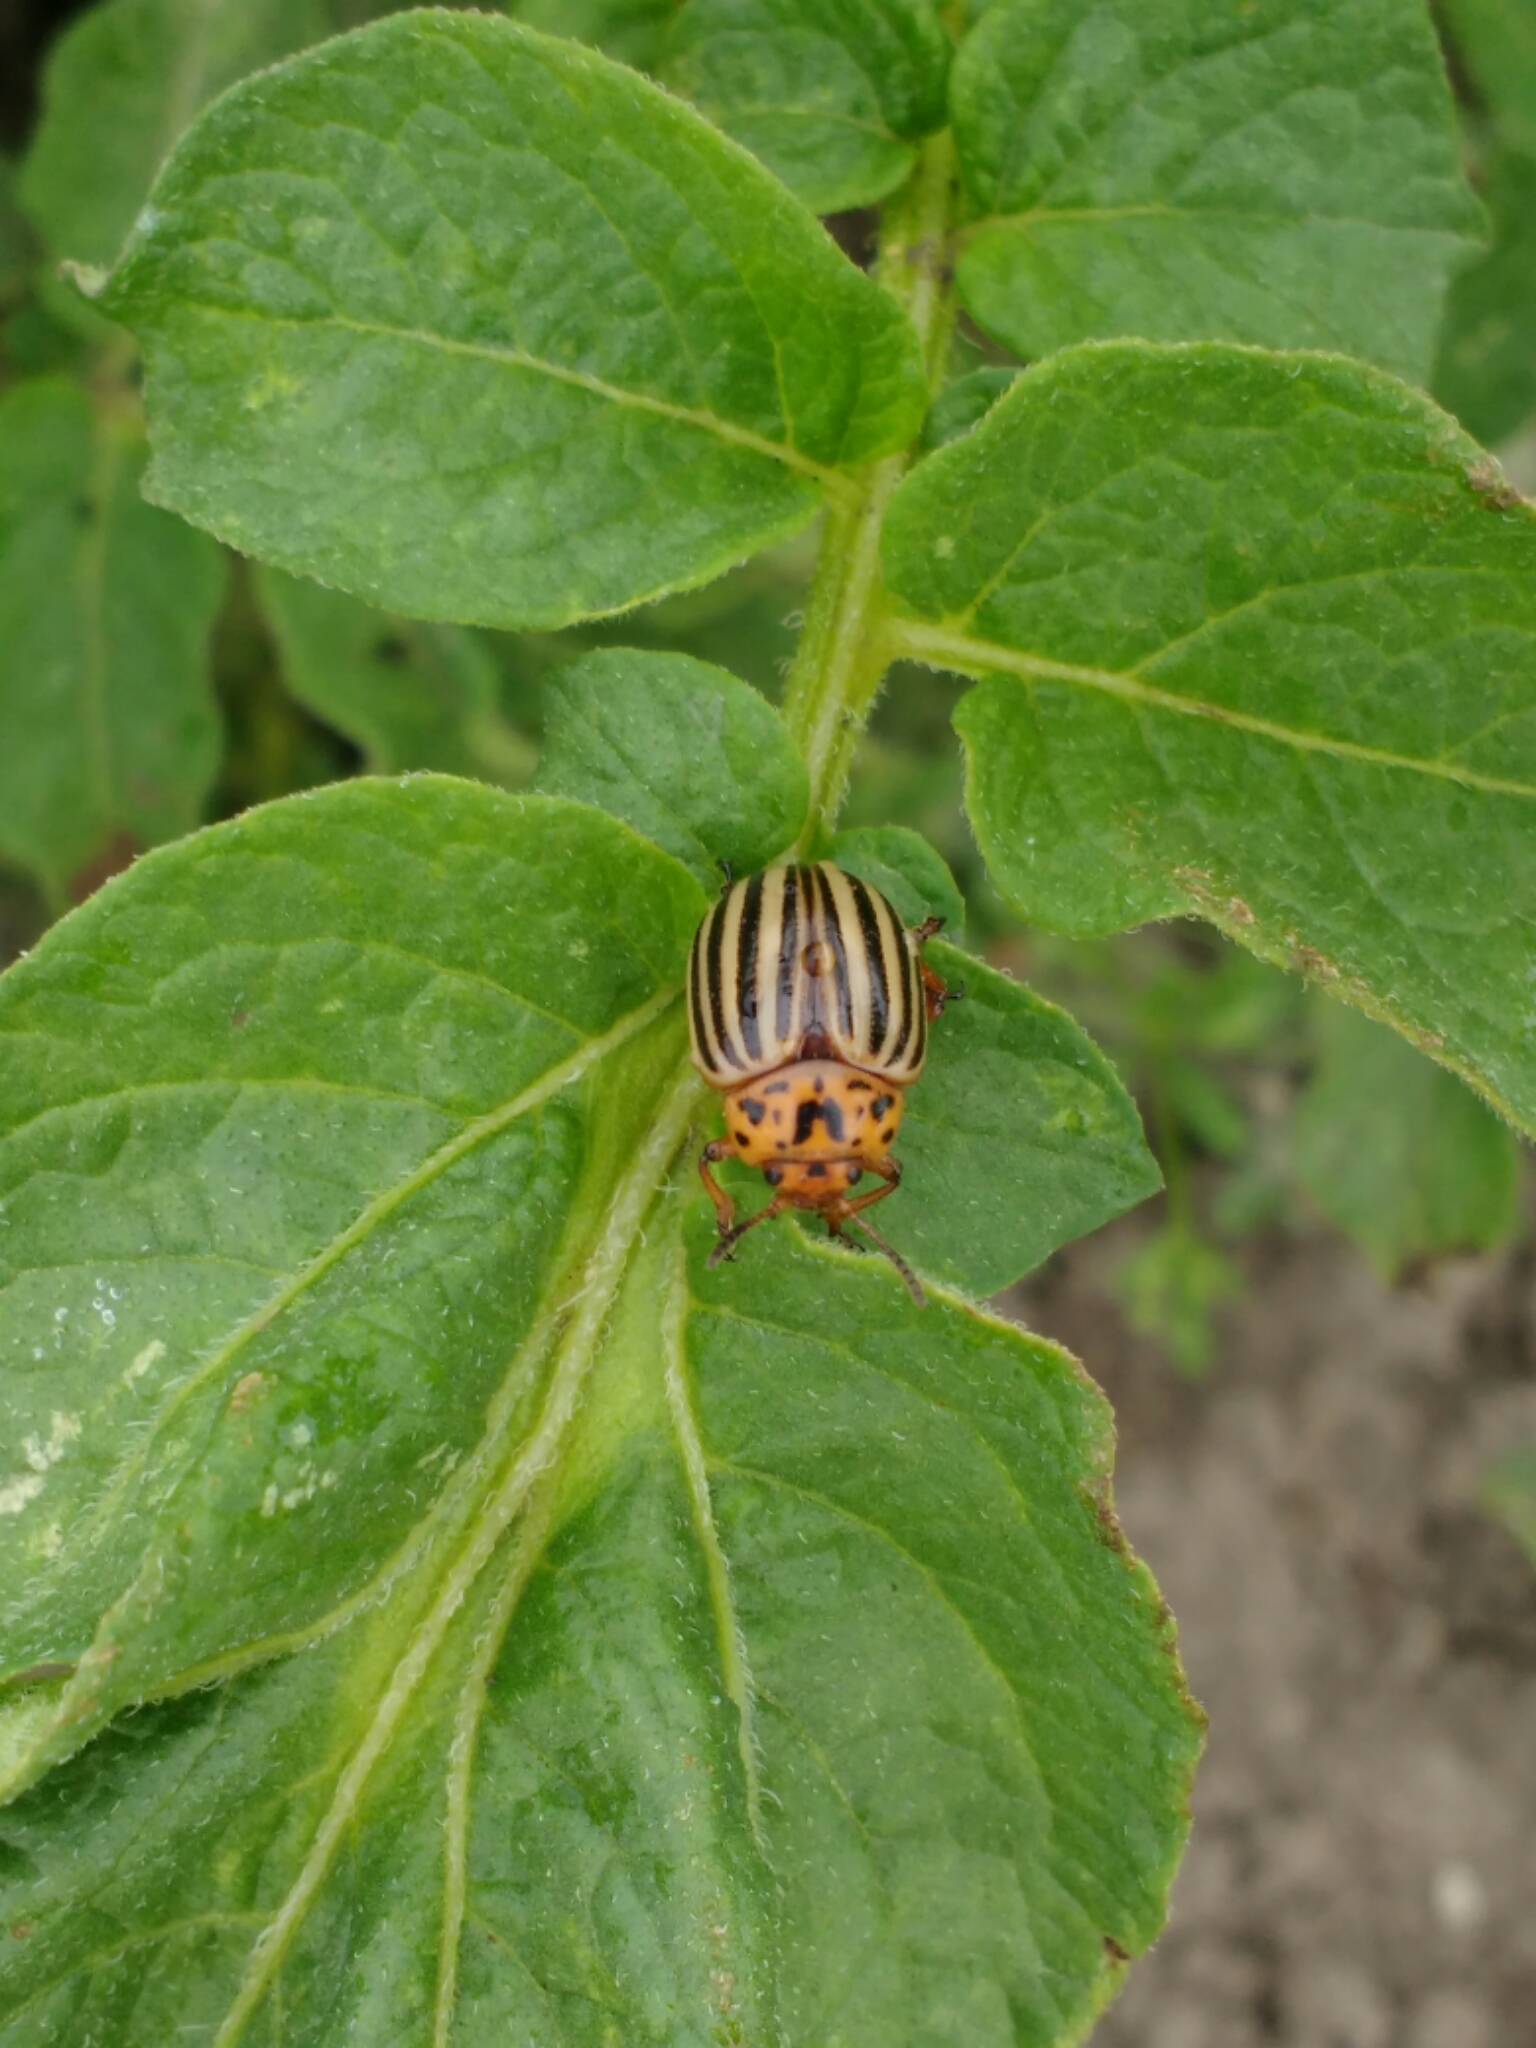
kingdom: Animalia
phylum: Arthropoda
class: Insecta
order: Coleoptera
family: Chrysomelidae
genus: Leptinotarsa
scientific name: Leptinotarsa decemlineata
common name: Colorado potato beetle
